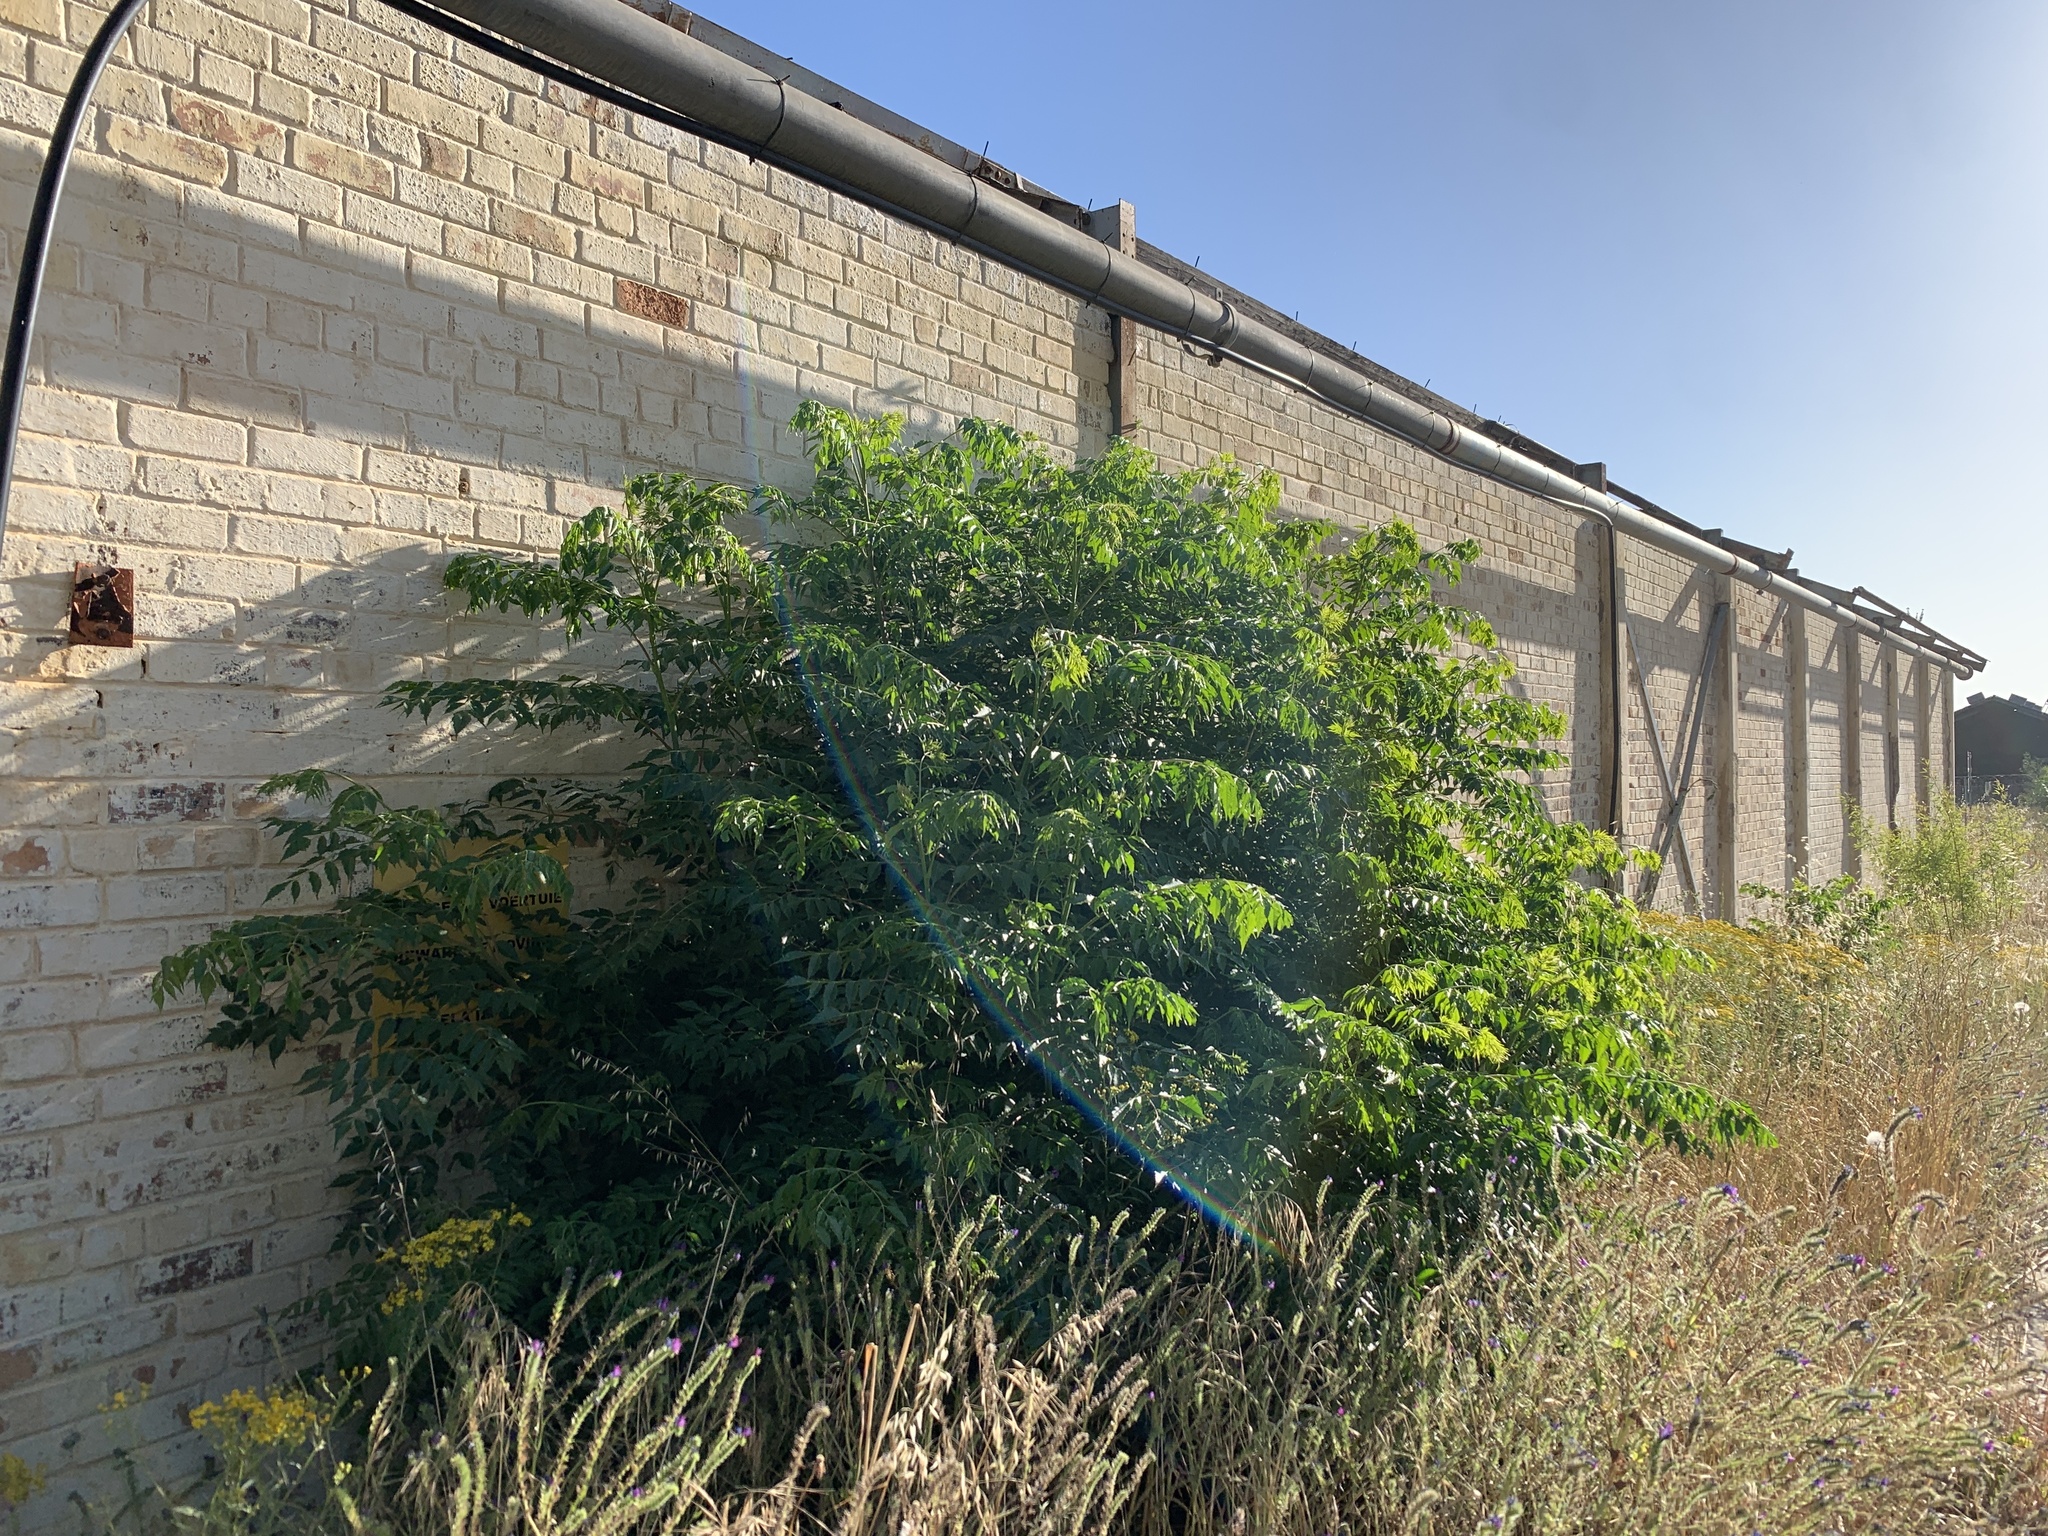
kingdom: Plantae
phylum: Tracheophyta
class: Magnoliopsida
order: Sapindales
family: Meliaceae
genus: Melia
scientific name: Melia azedarach
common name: Chinaberrytree
